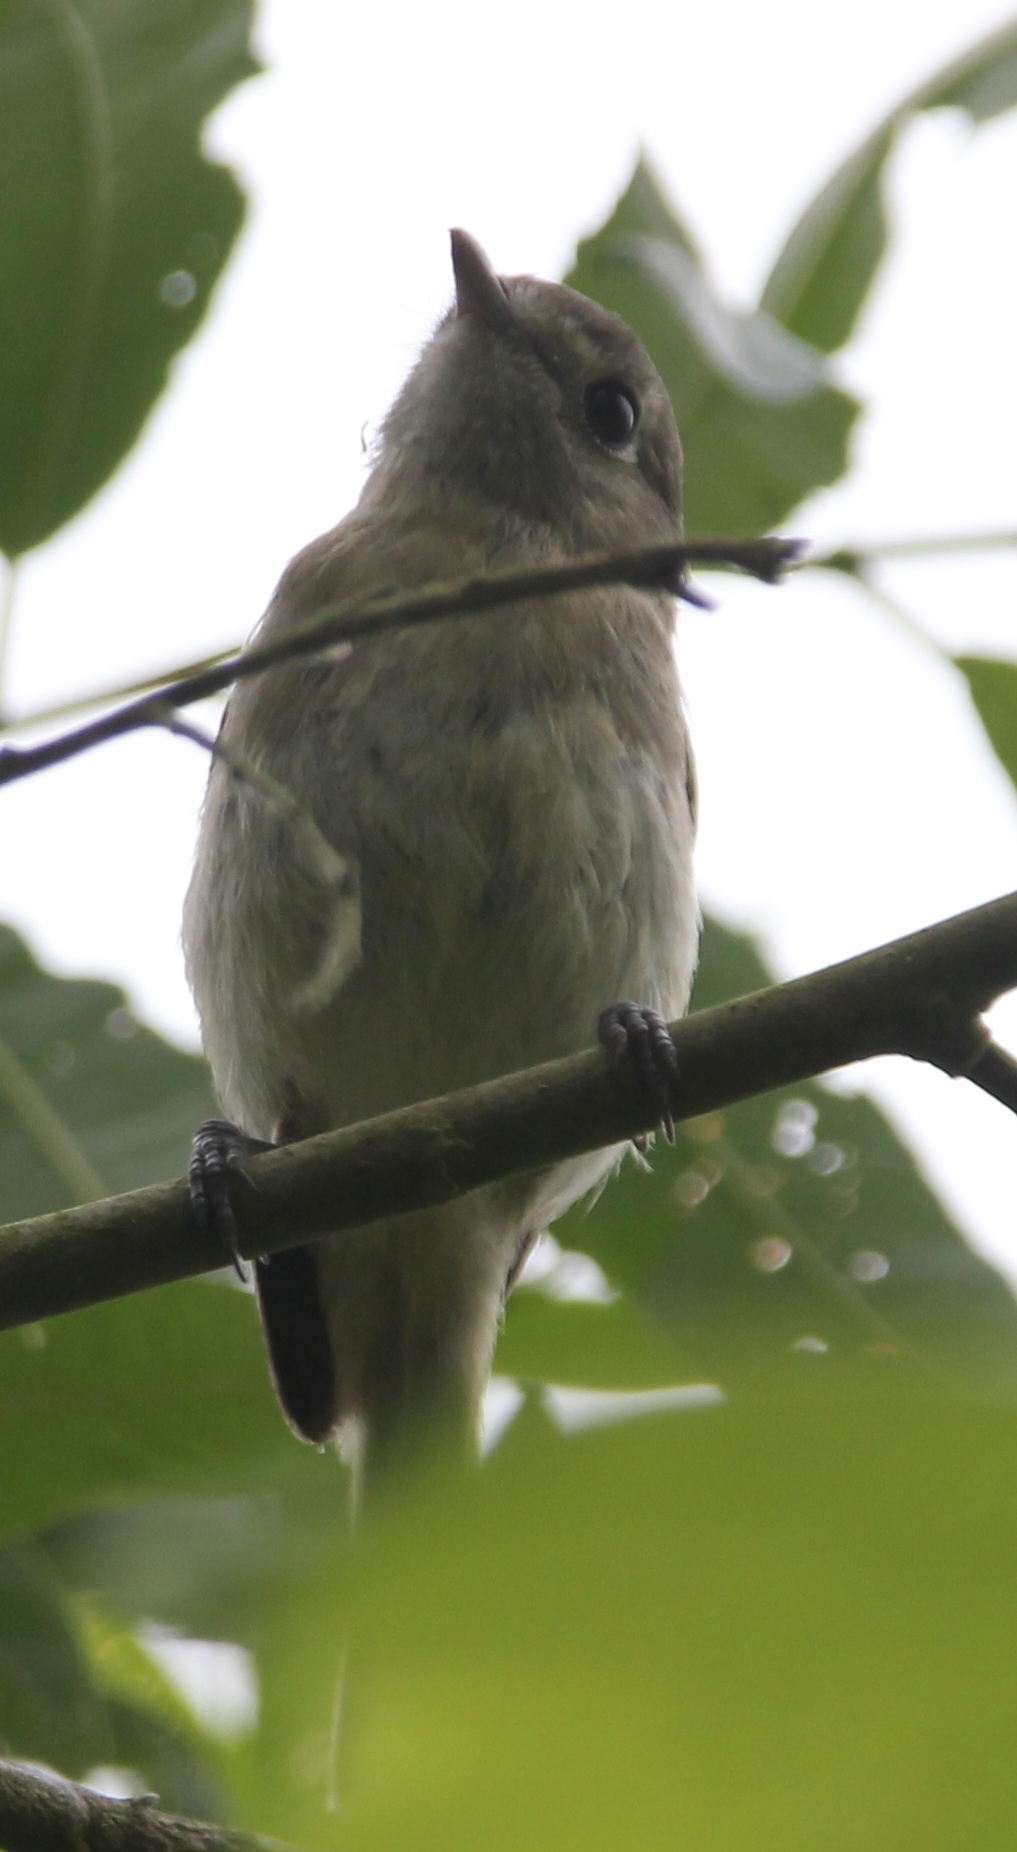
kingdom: Animalia
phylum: Chordata
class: Aves
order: Passeriformes
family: Vireonidae
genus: Vireo
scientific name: Vireo huttoni
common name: Hutton's vireo
